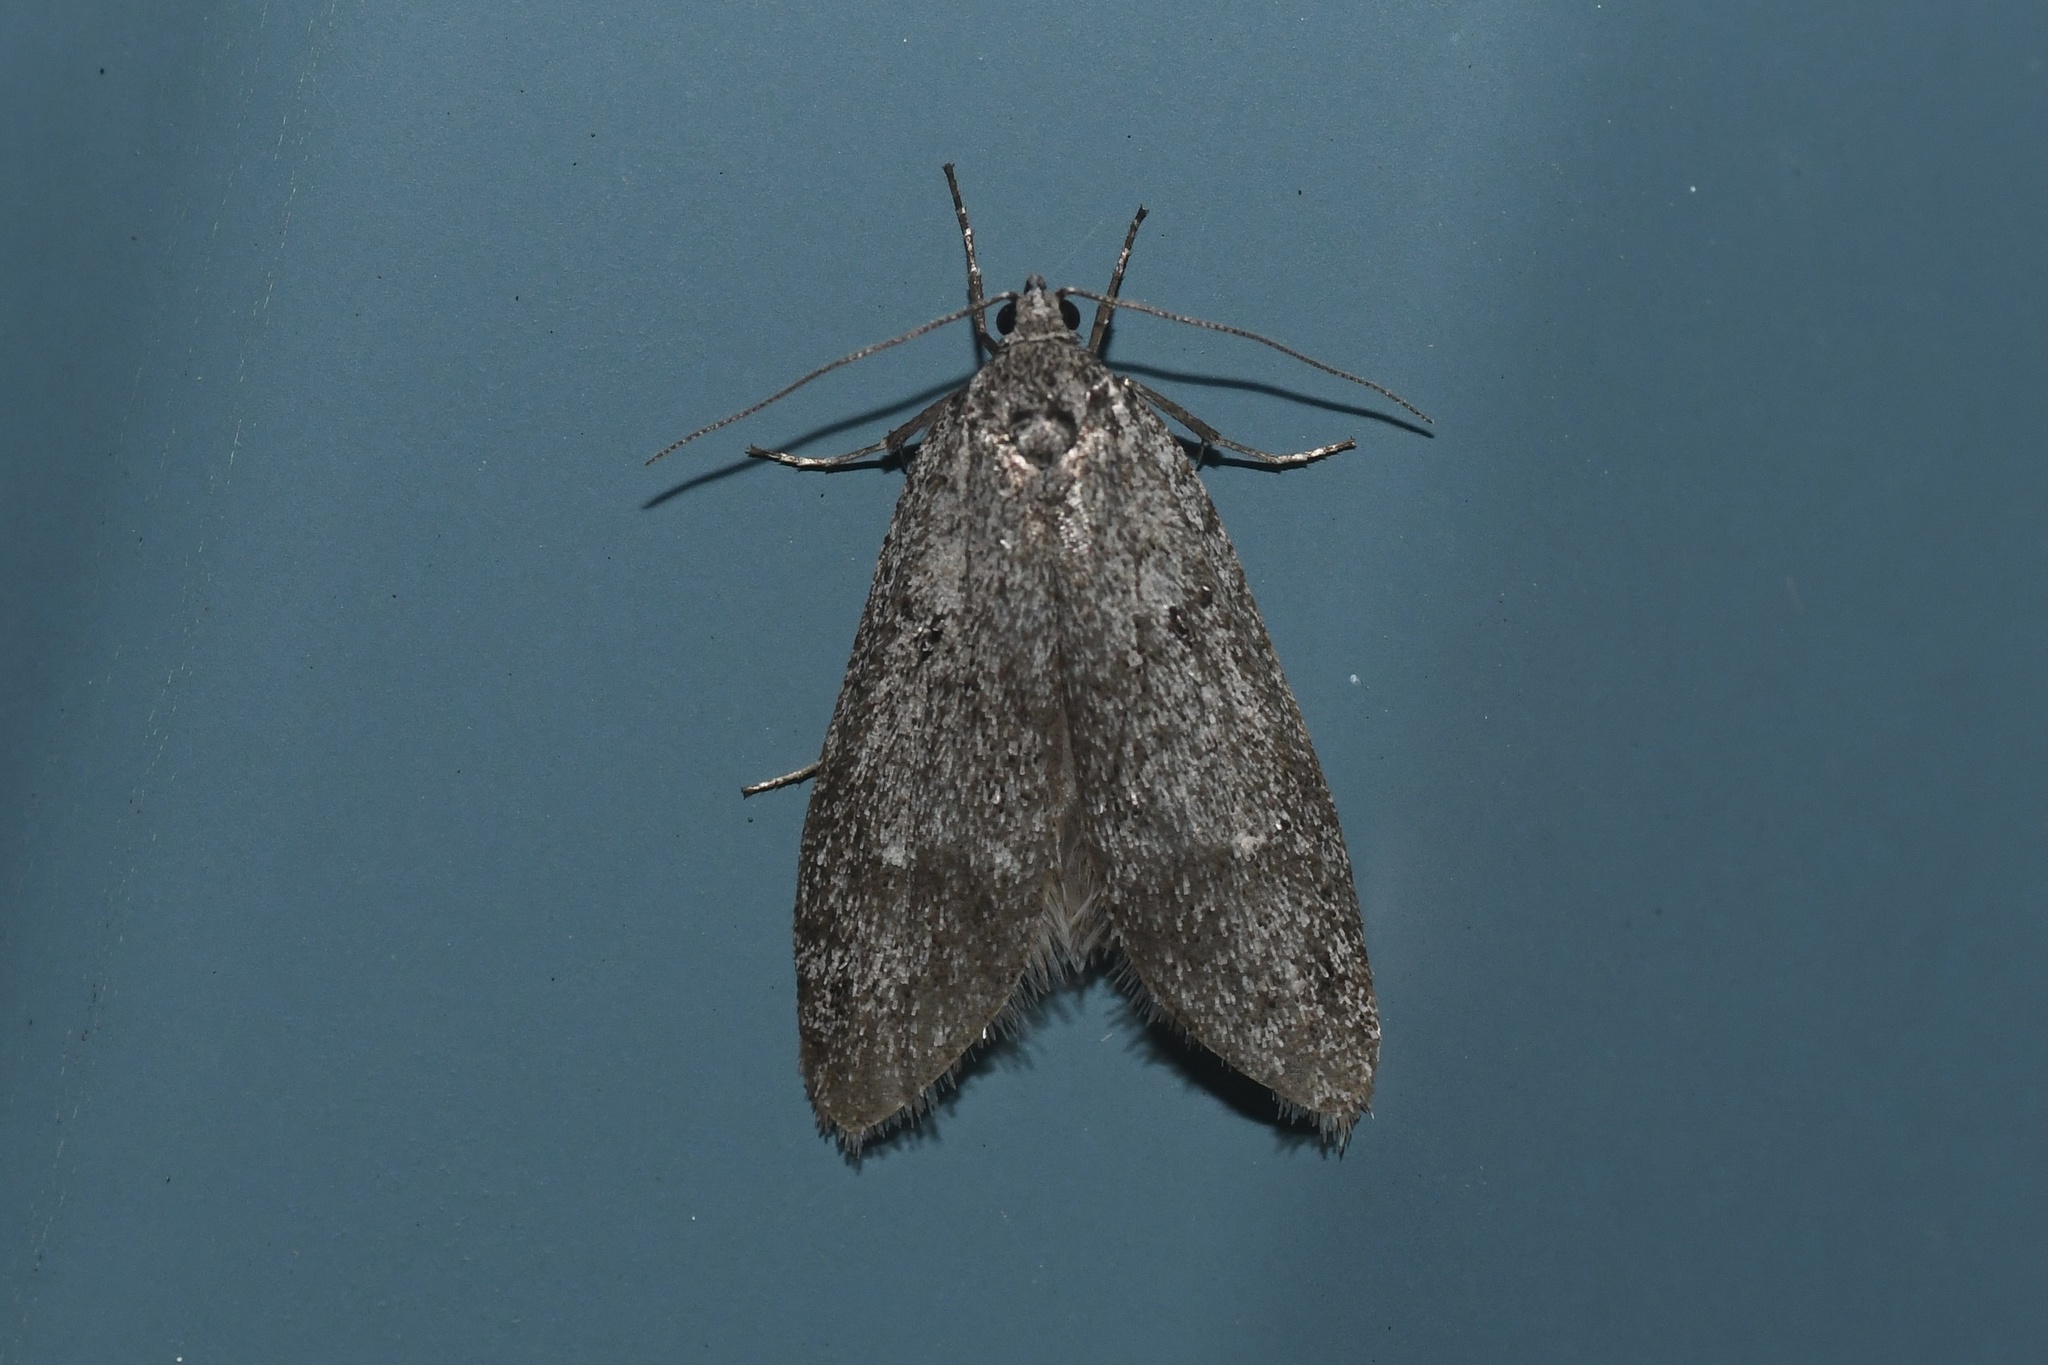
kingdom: Animalia
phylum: Arthropoda
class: Insecta
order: Lepidoptera
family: Depressariidae
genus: Semioscopis
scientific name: Semioscopis inornata
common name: Poplar micromoth
